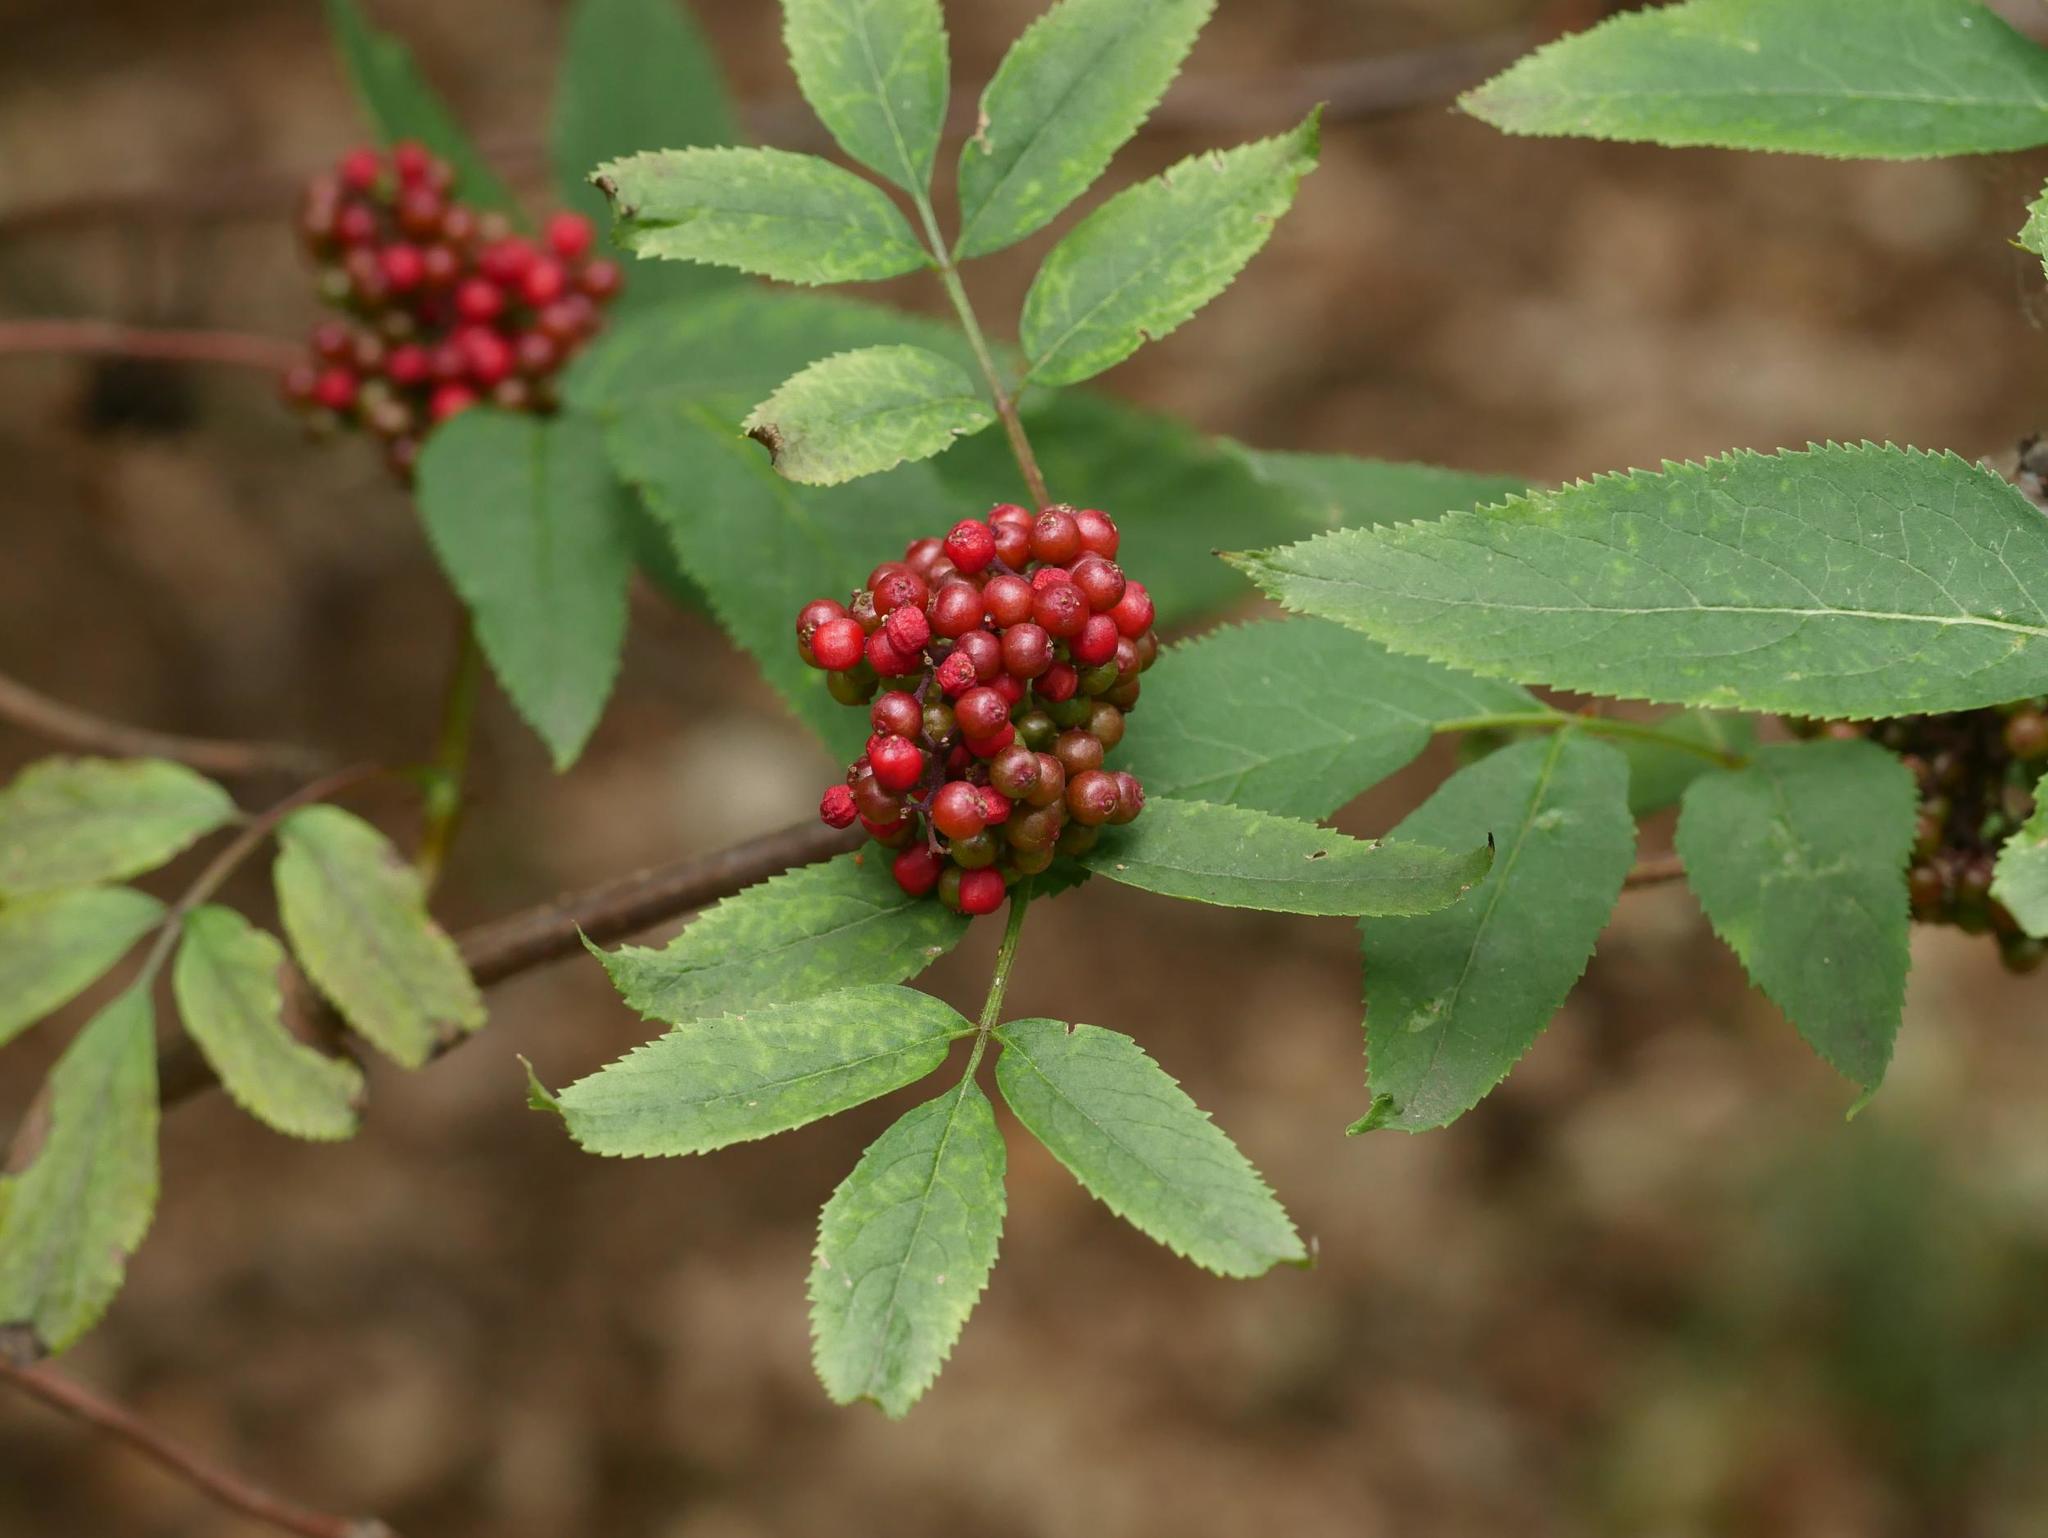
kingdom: Plantae
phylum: Tracheophyta
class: Magnoliopsida
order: Dipsacales
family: Viburnaceae
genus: Sambucus
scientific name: Sambucus racemosa
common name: Red-berried elder
